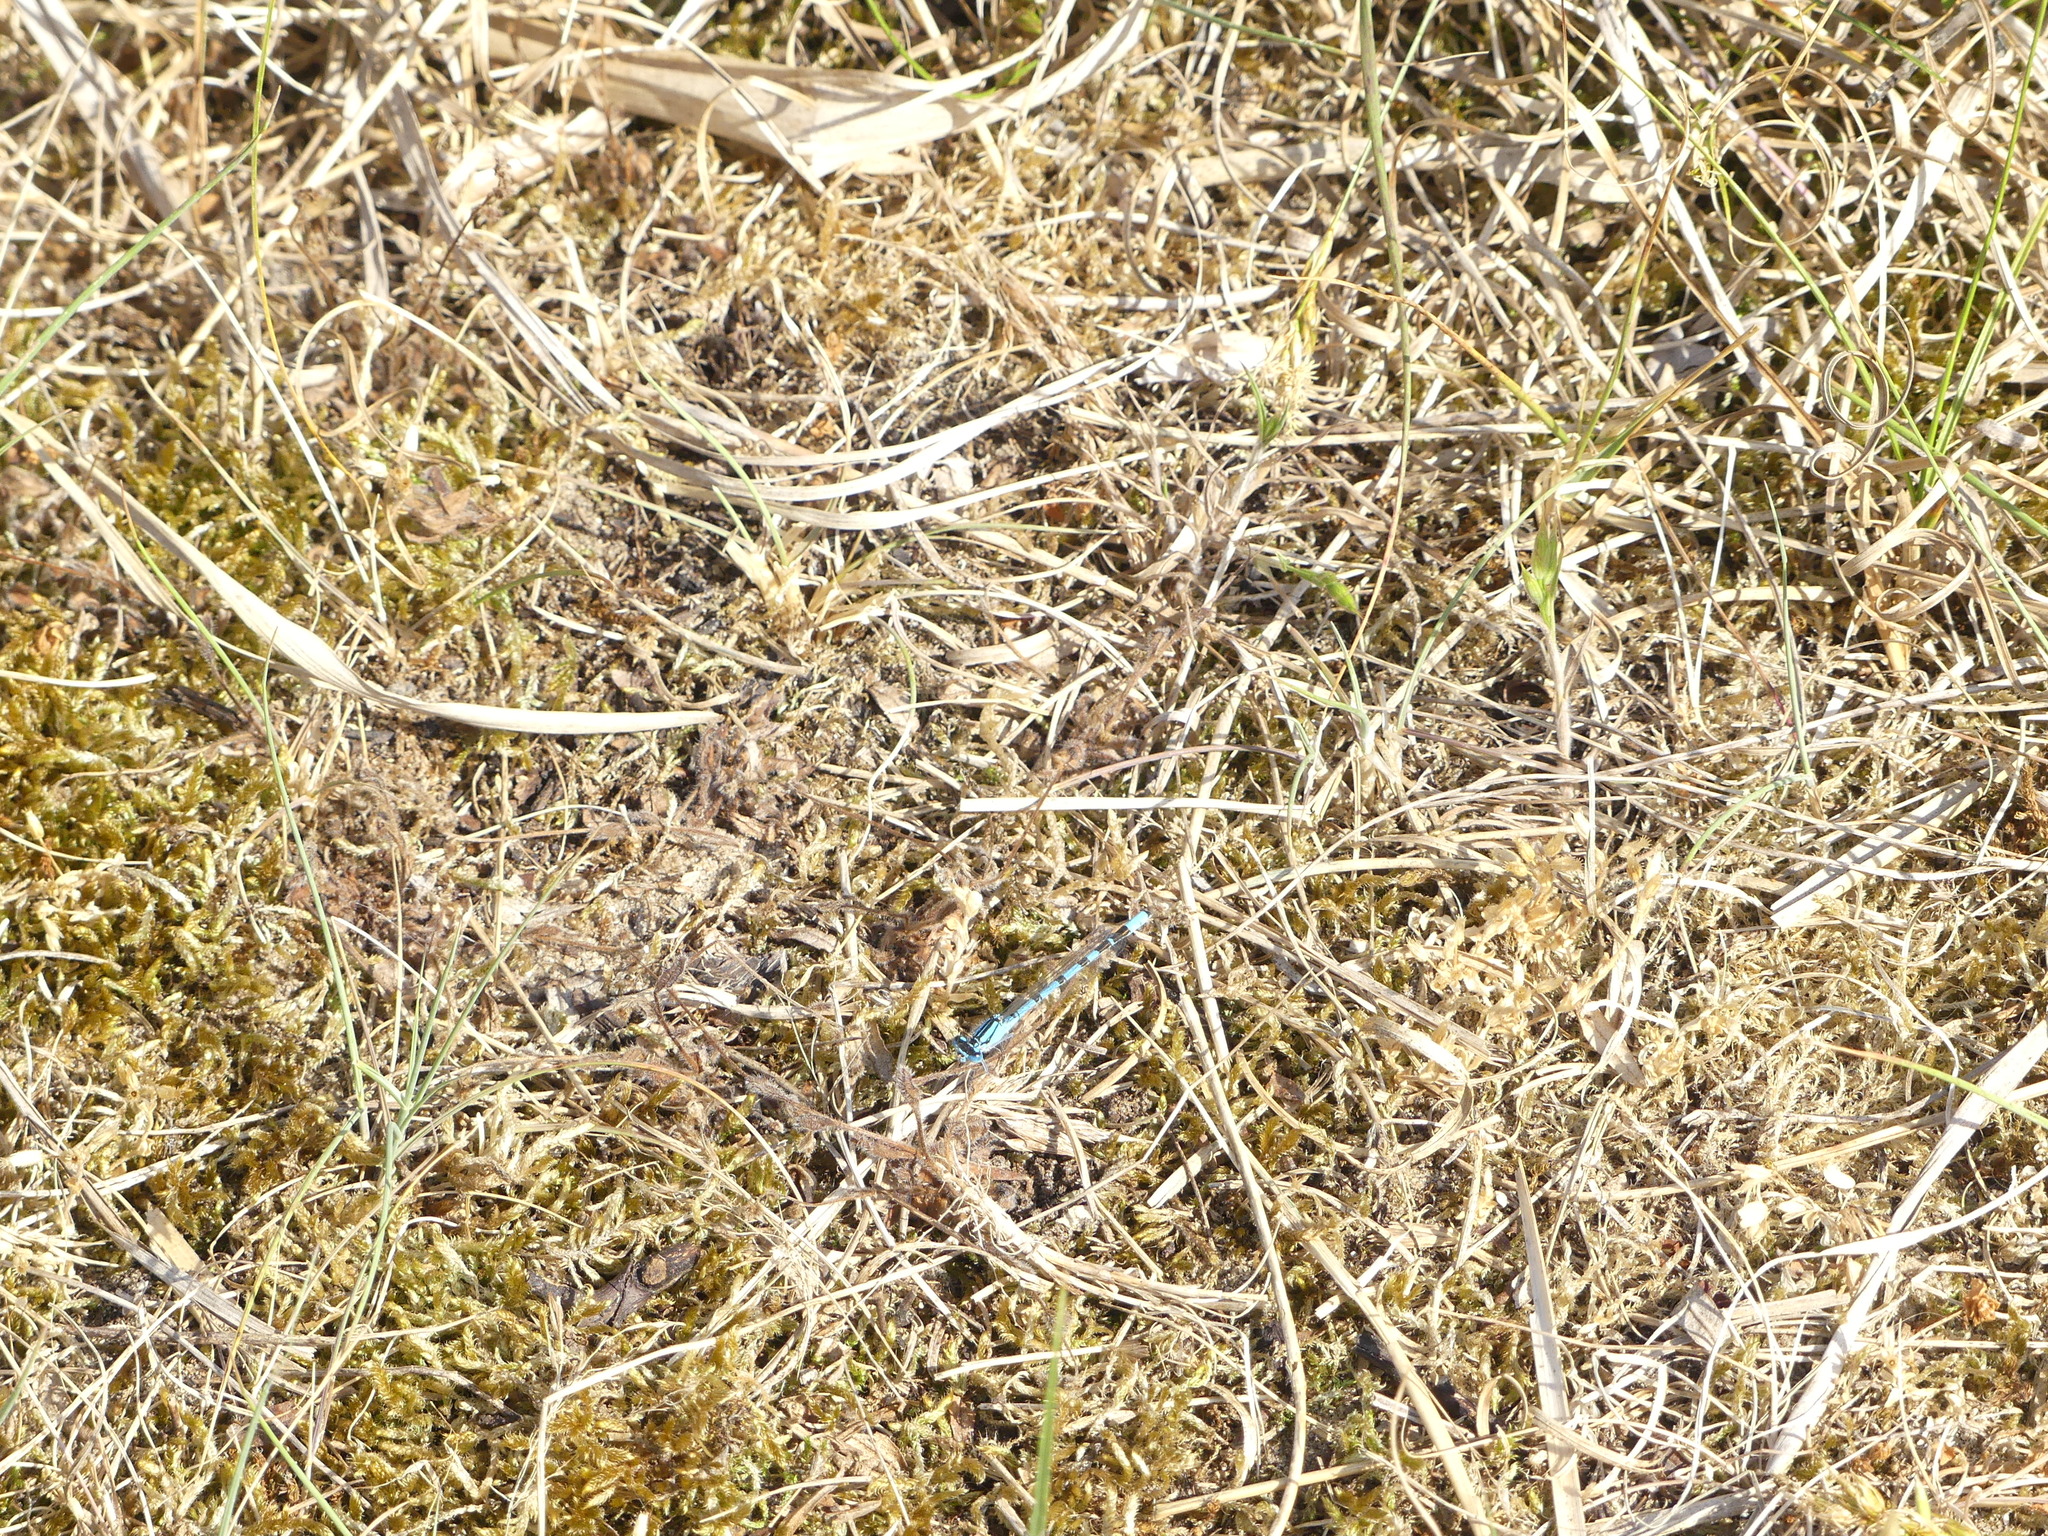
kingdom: Animalia
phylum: Arthropoda
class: Insecta
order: Odonata
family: Coenagrionidae
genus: Enallagma
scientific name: Enallagma cyathigerum
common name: Common blue damselfly
